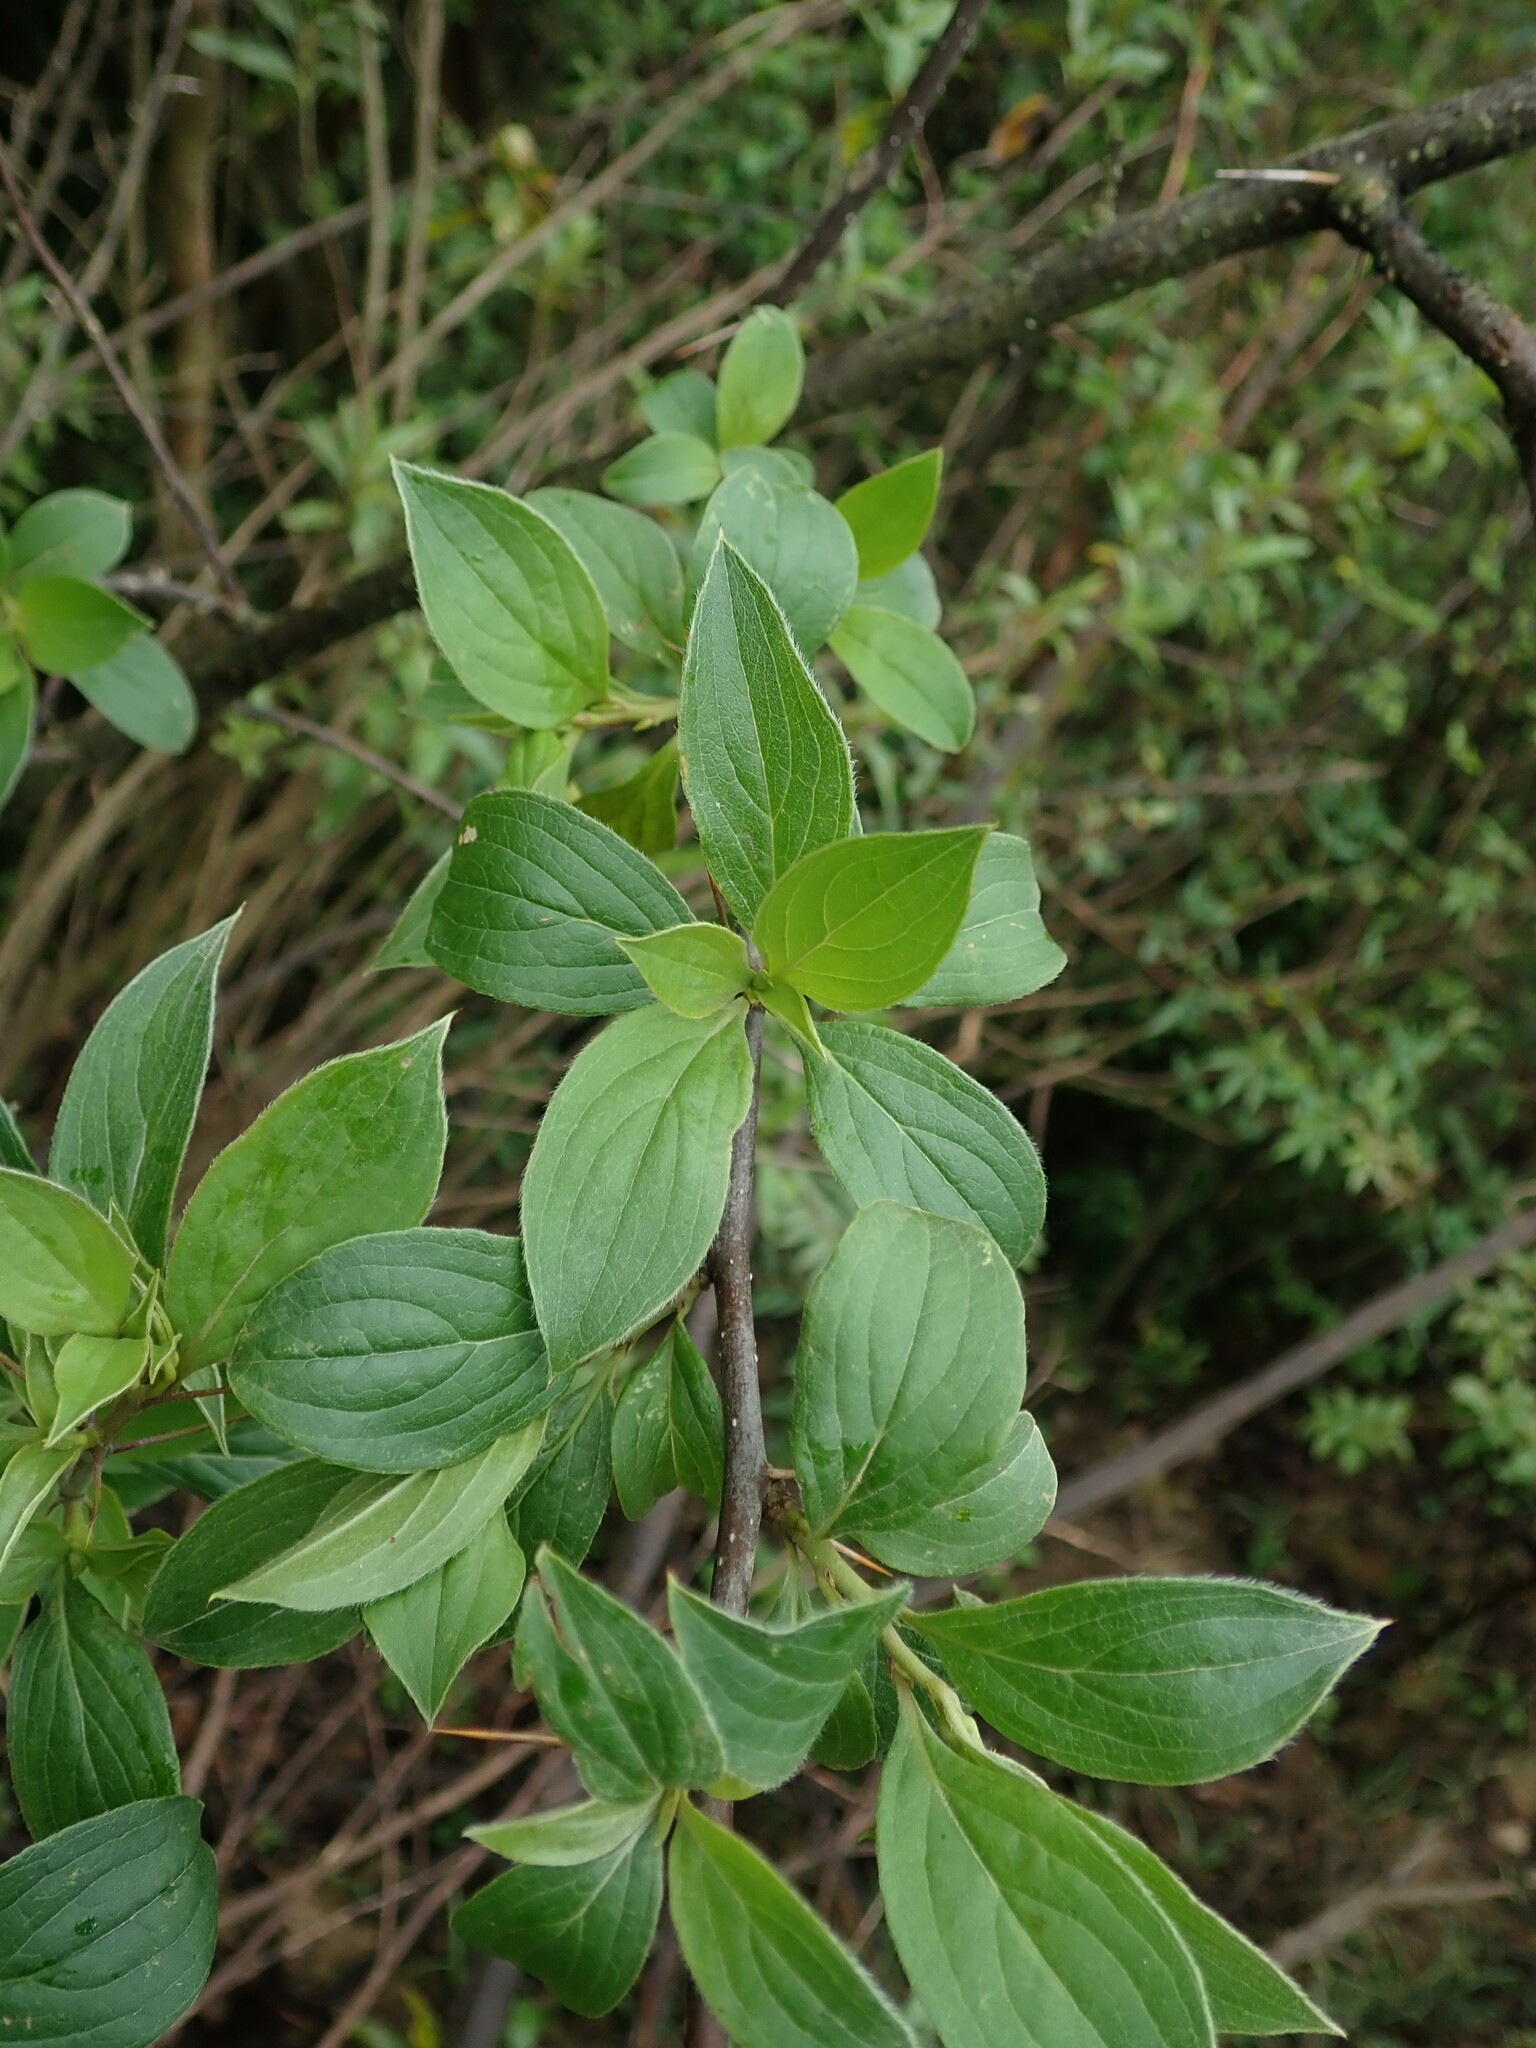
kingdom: Plantae
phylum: Tracheophyta
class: Magnoliopsida
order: Asterales
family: Asteraceae
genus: Barnadesia
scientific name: Barnadesia odorata
